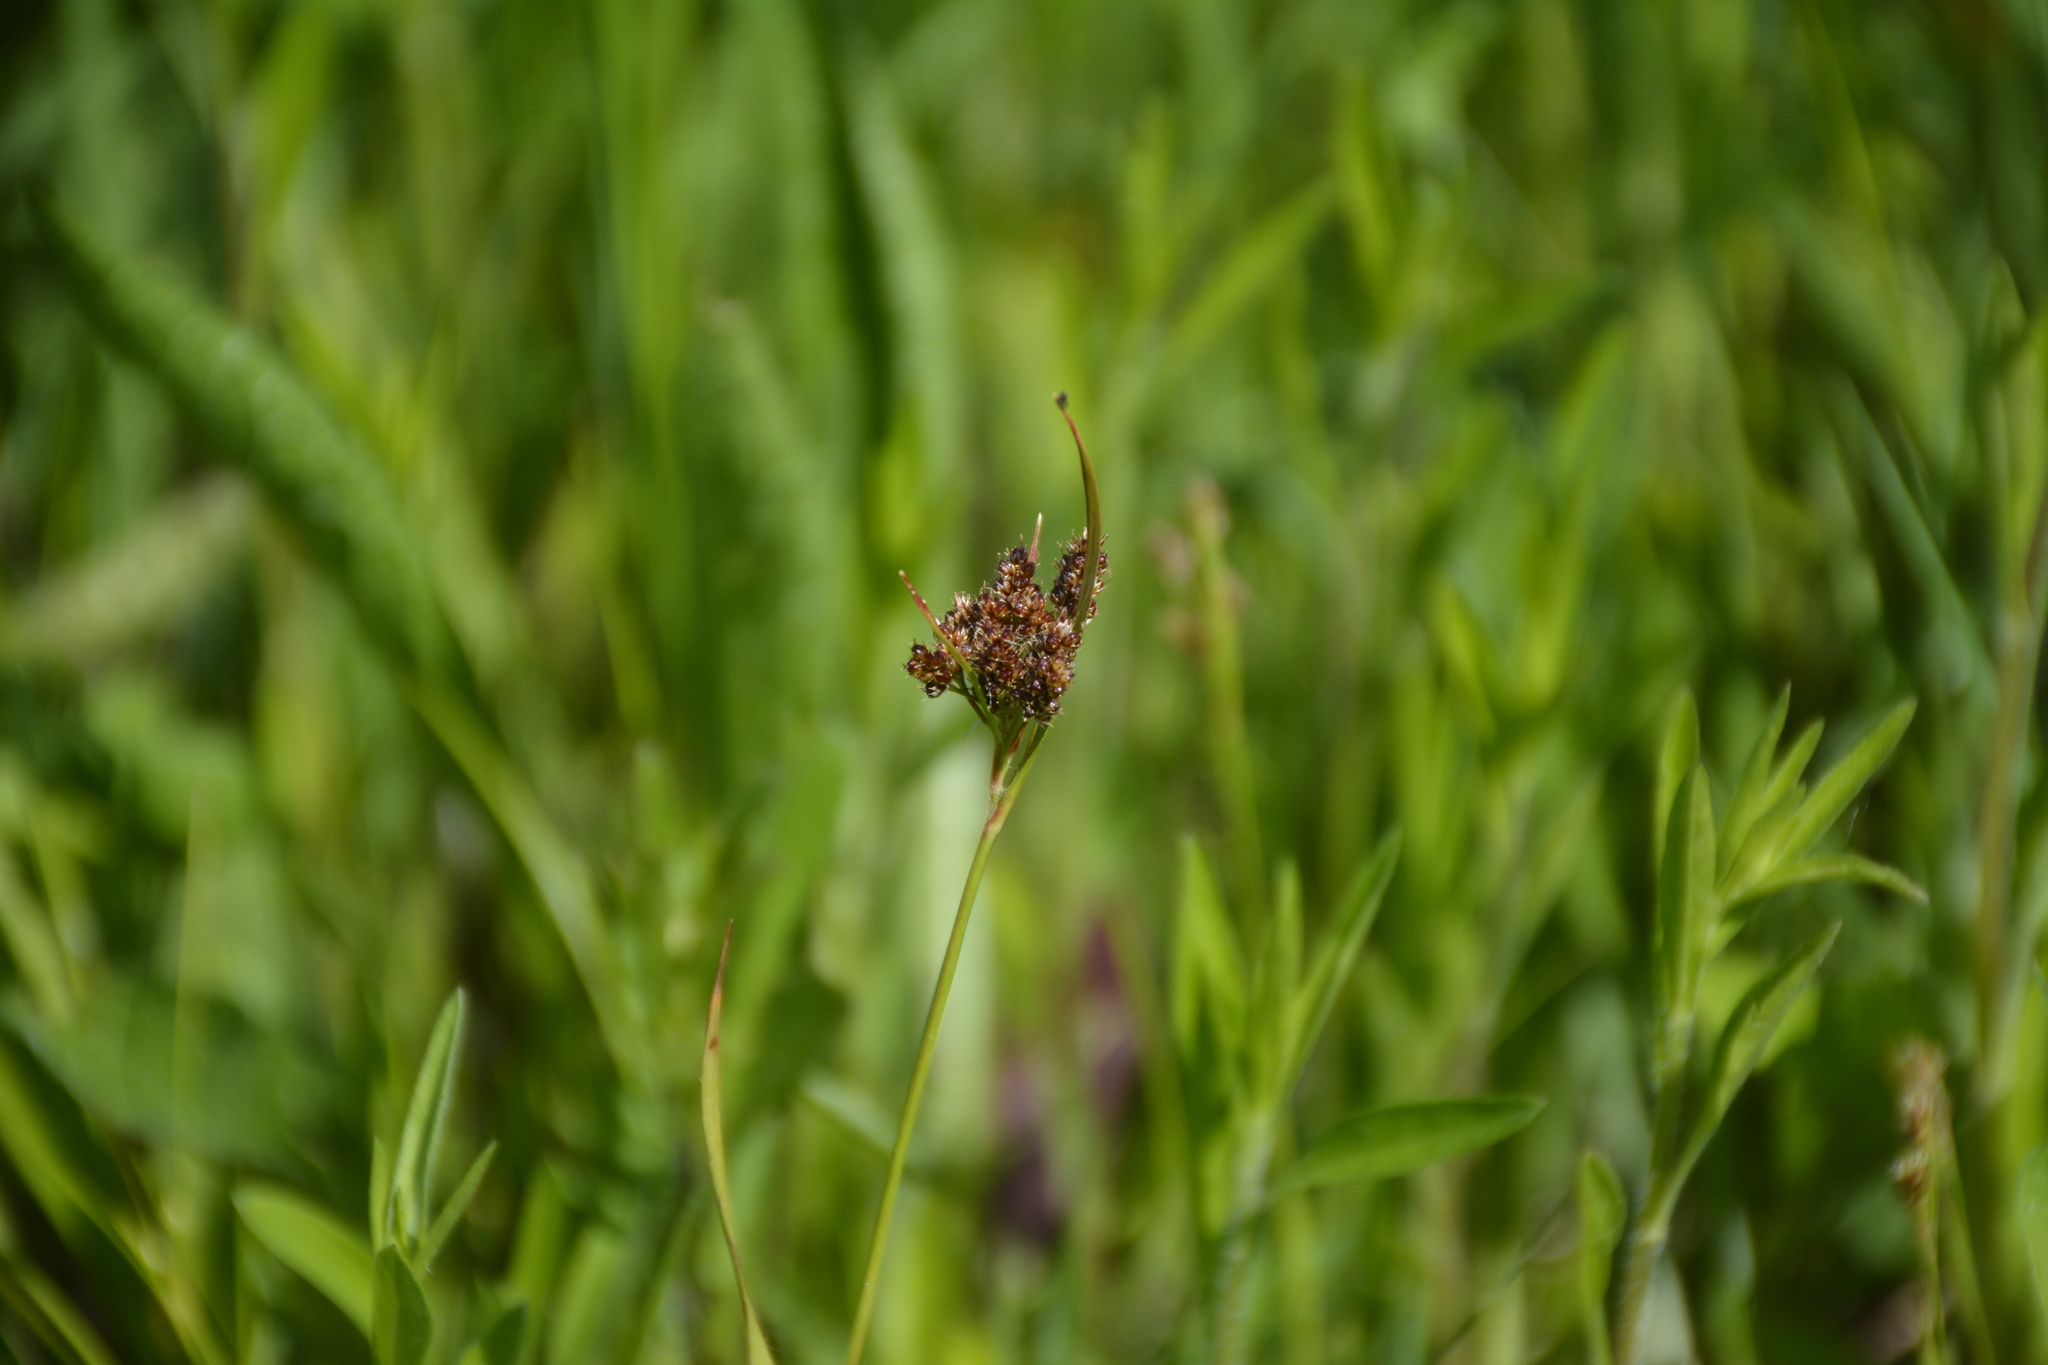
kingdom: Plantae
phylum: Tracheophyta
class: Liliopsida
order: Poales
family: Juncaceae
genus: Luzula
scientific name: Luzula pallescens
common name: Fen wood-rush
